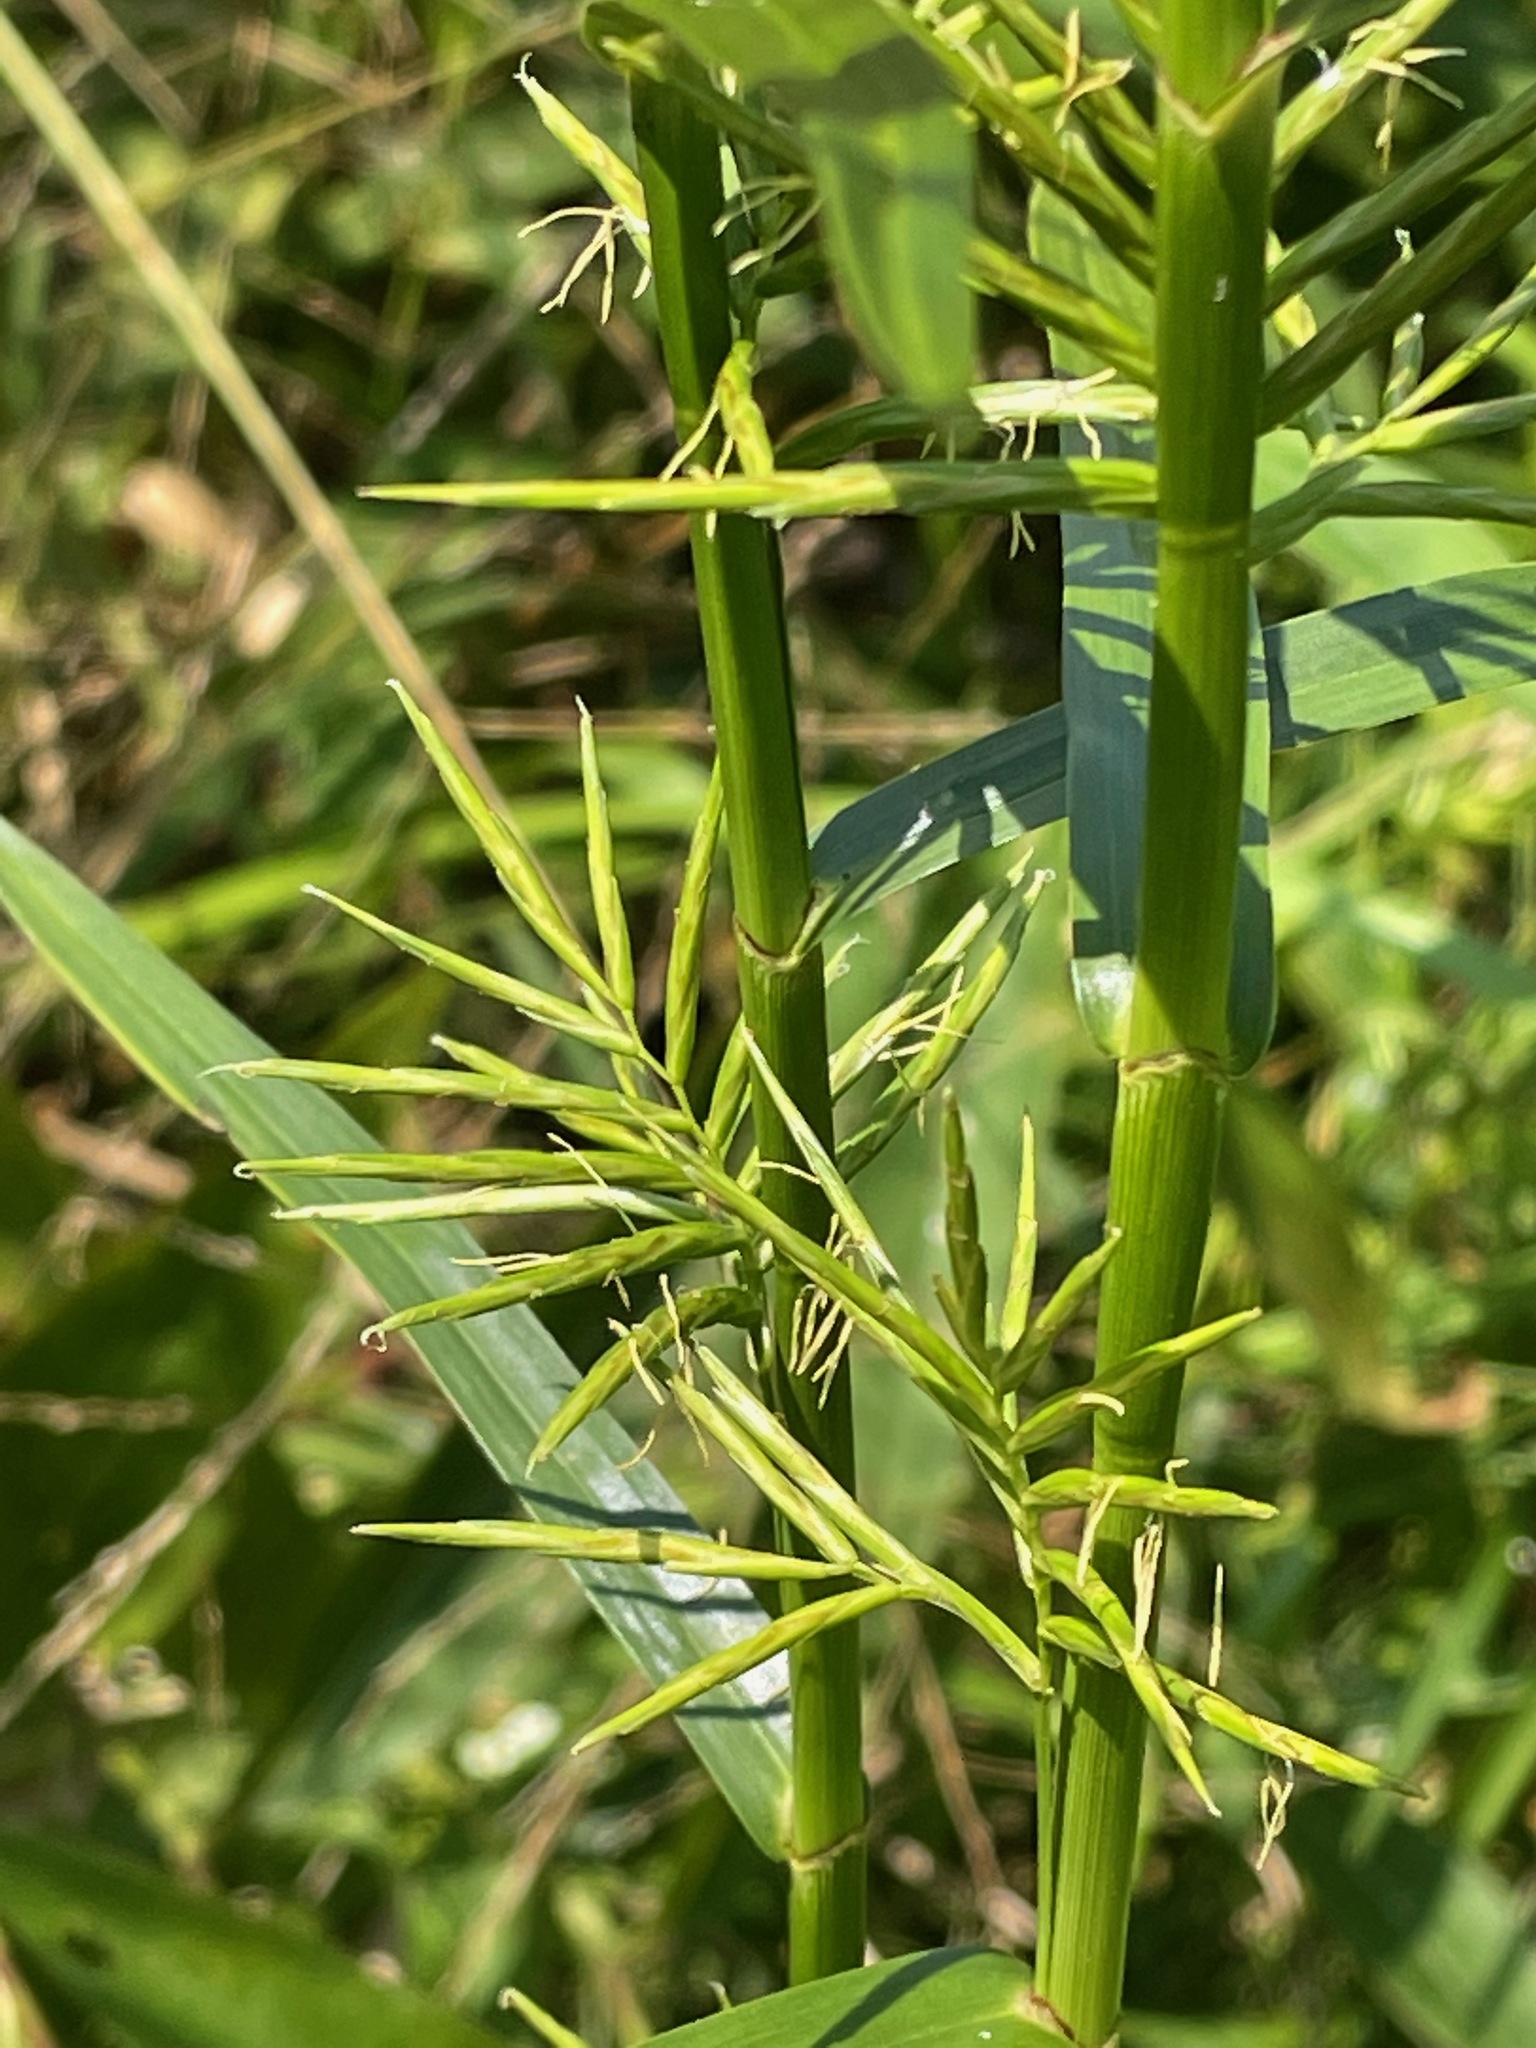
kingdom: Plantae
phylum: Tracheophyta
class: Liliopsida
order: Poales
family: Cyperaceae
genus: Dulichium
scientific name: Dulichium arundinaceum
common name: Three-way sedge
